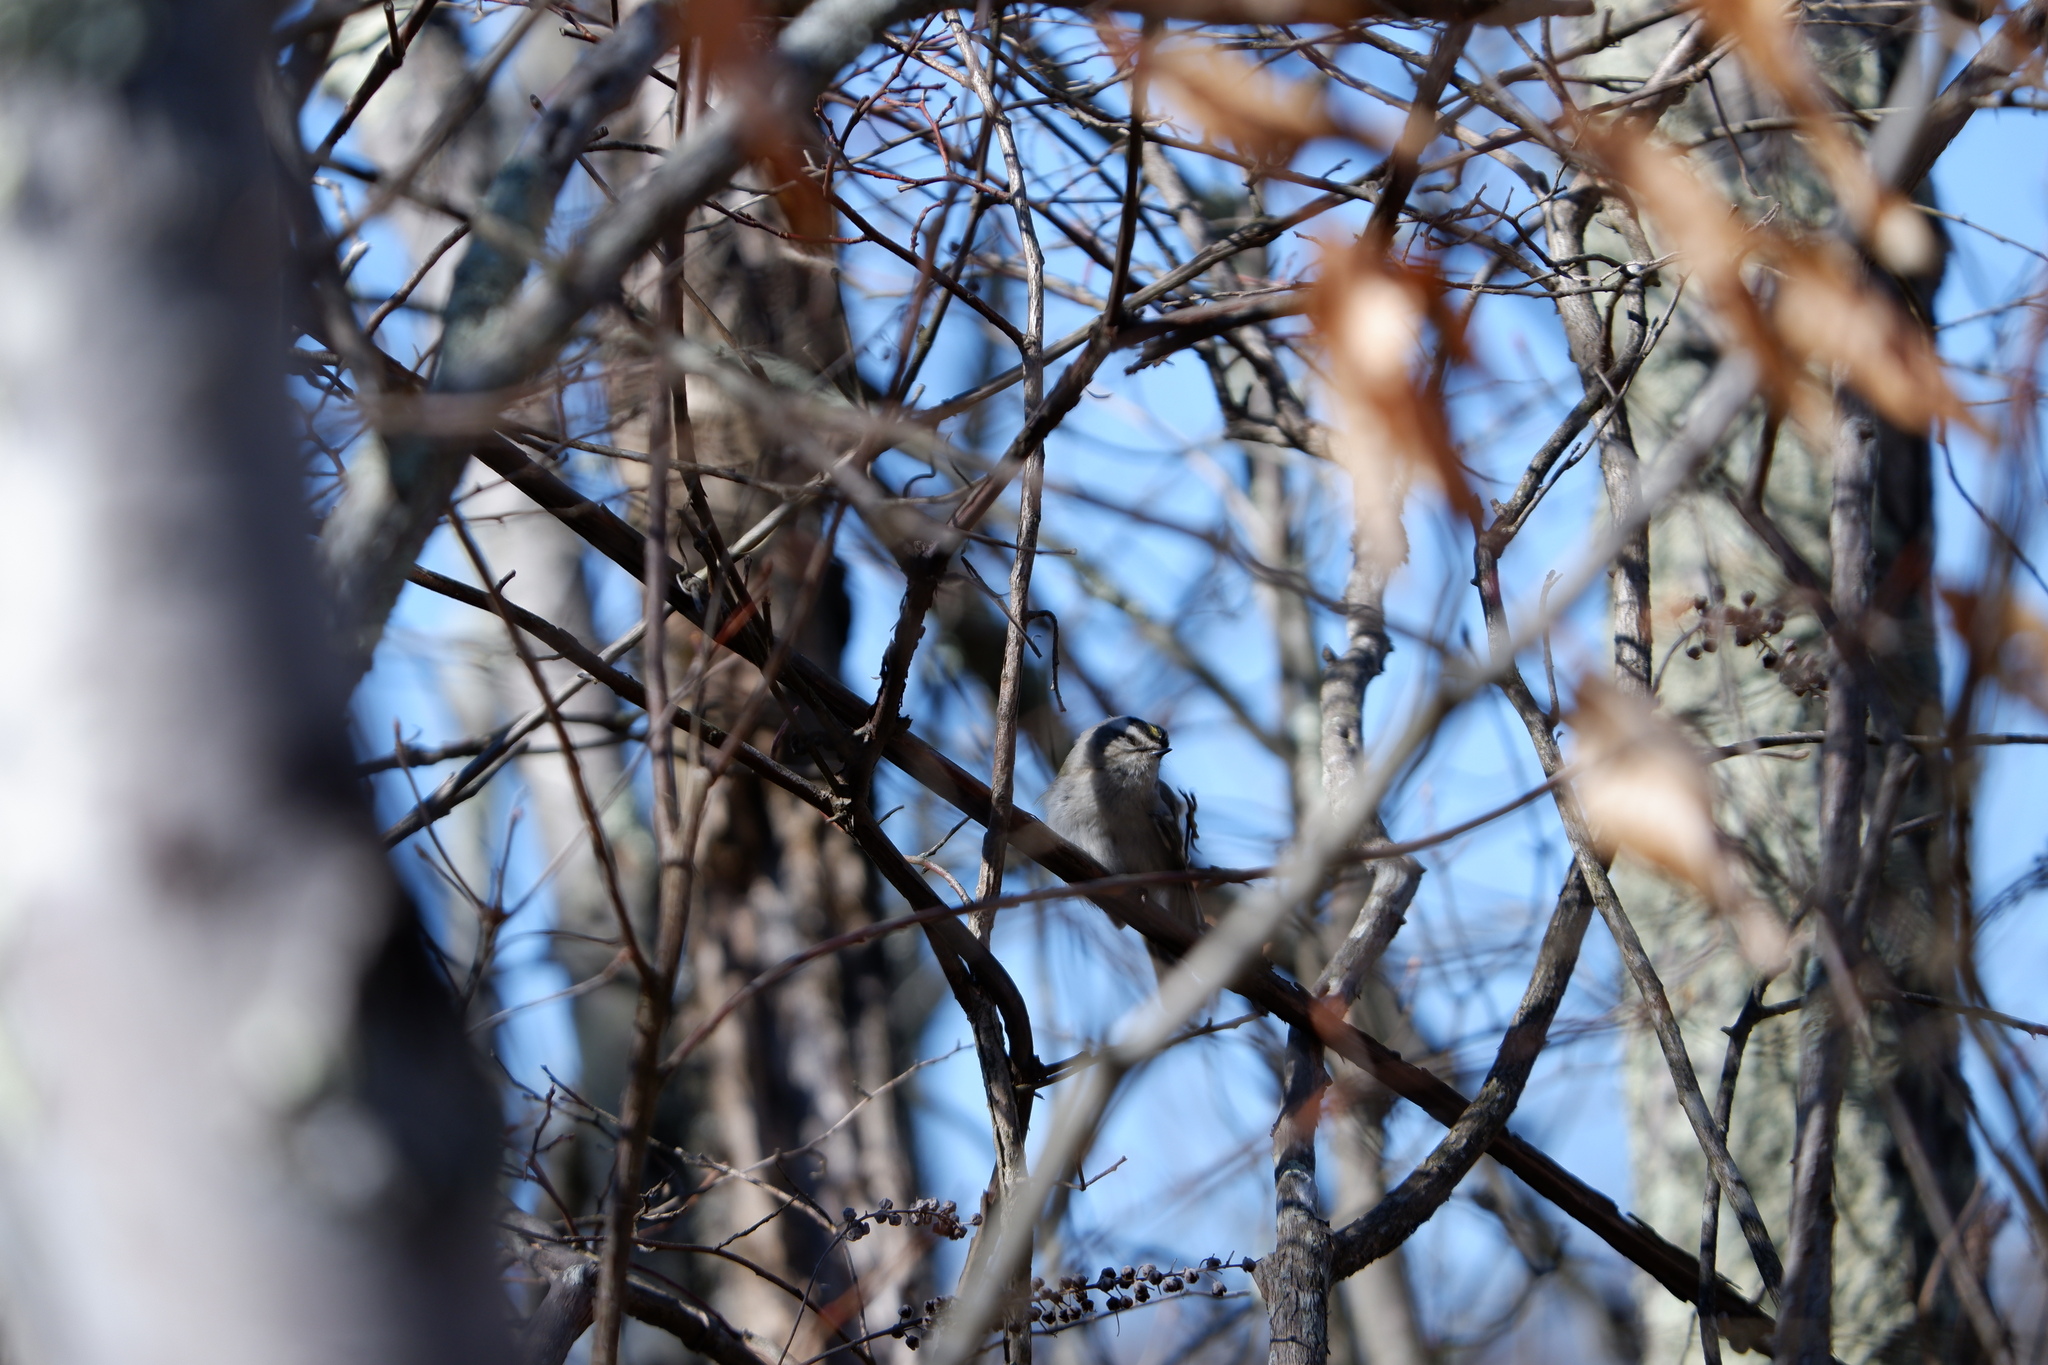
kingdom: Animalia
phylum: Chordata
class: Aves
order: Passeriformes
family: Regulidae
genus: Regulus
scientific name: Regulus satrapa
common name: Golden-crowned kinglet
